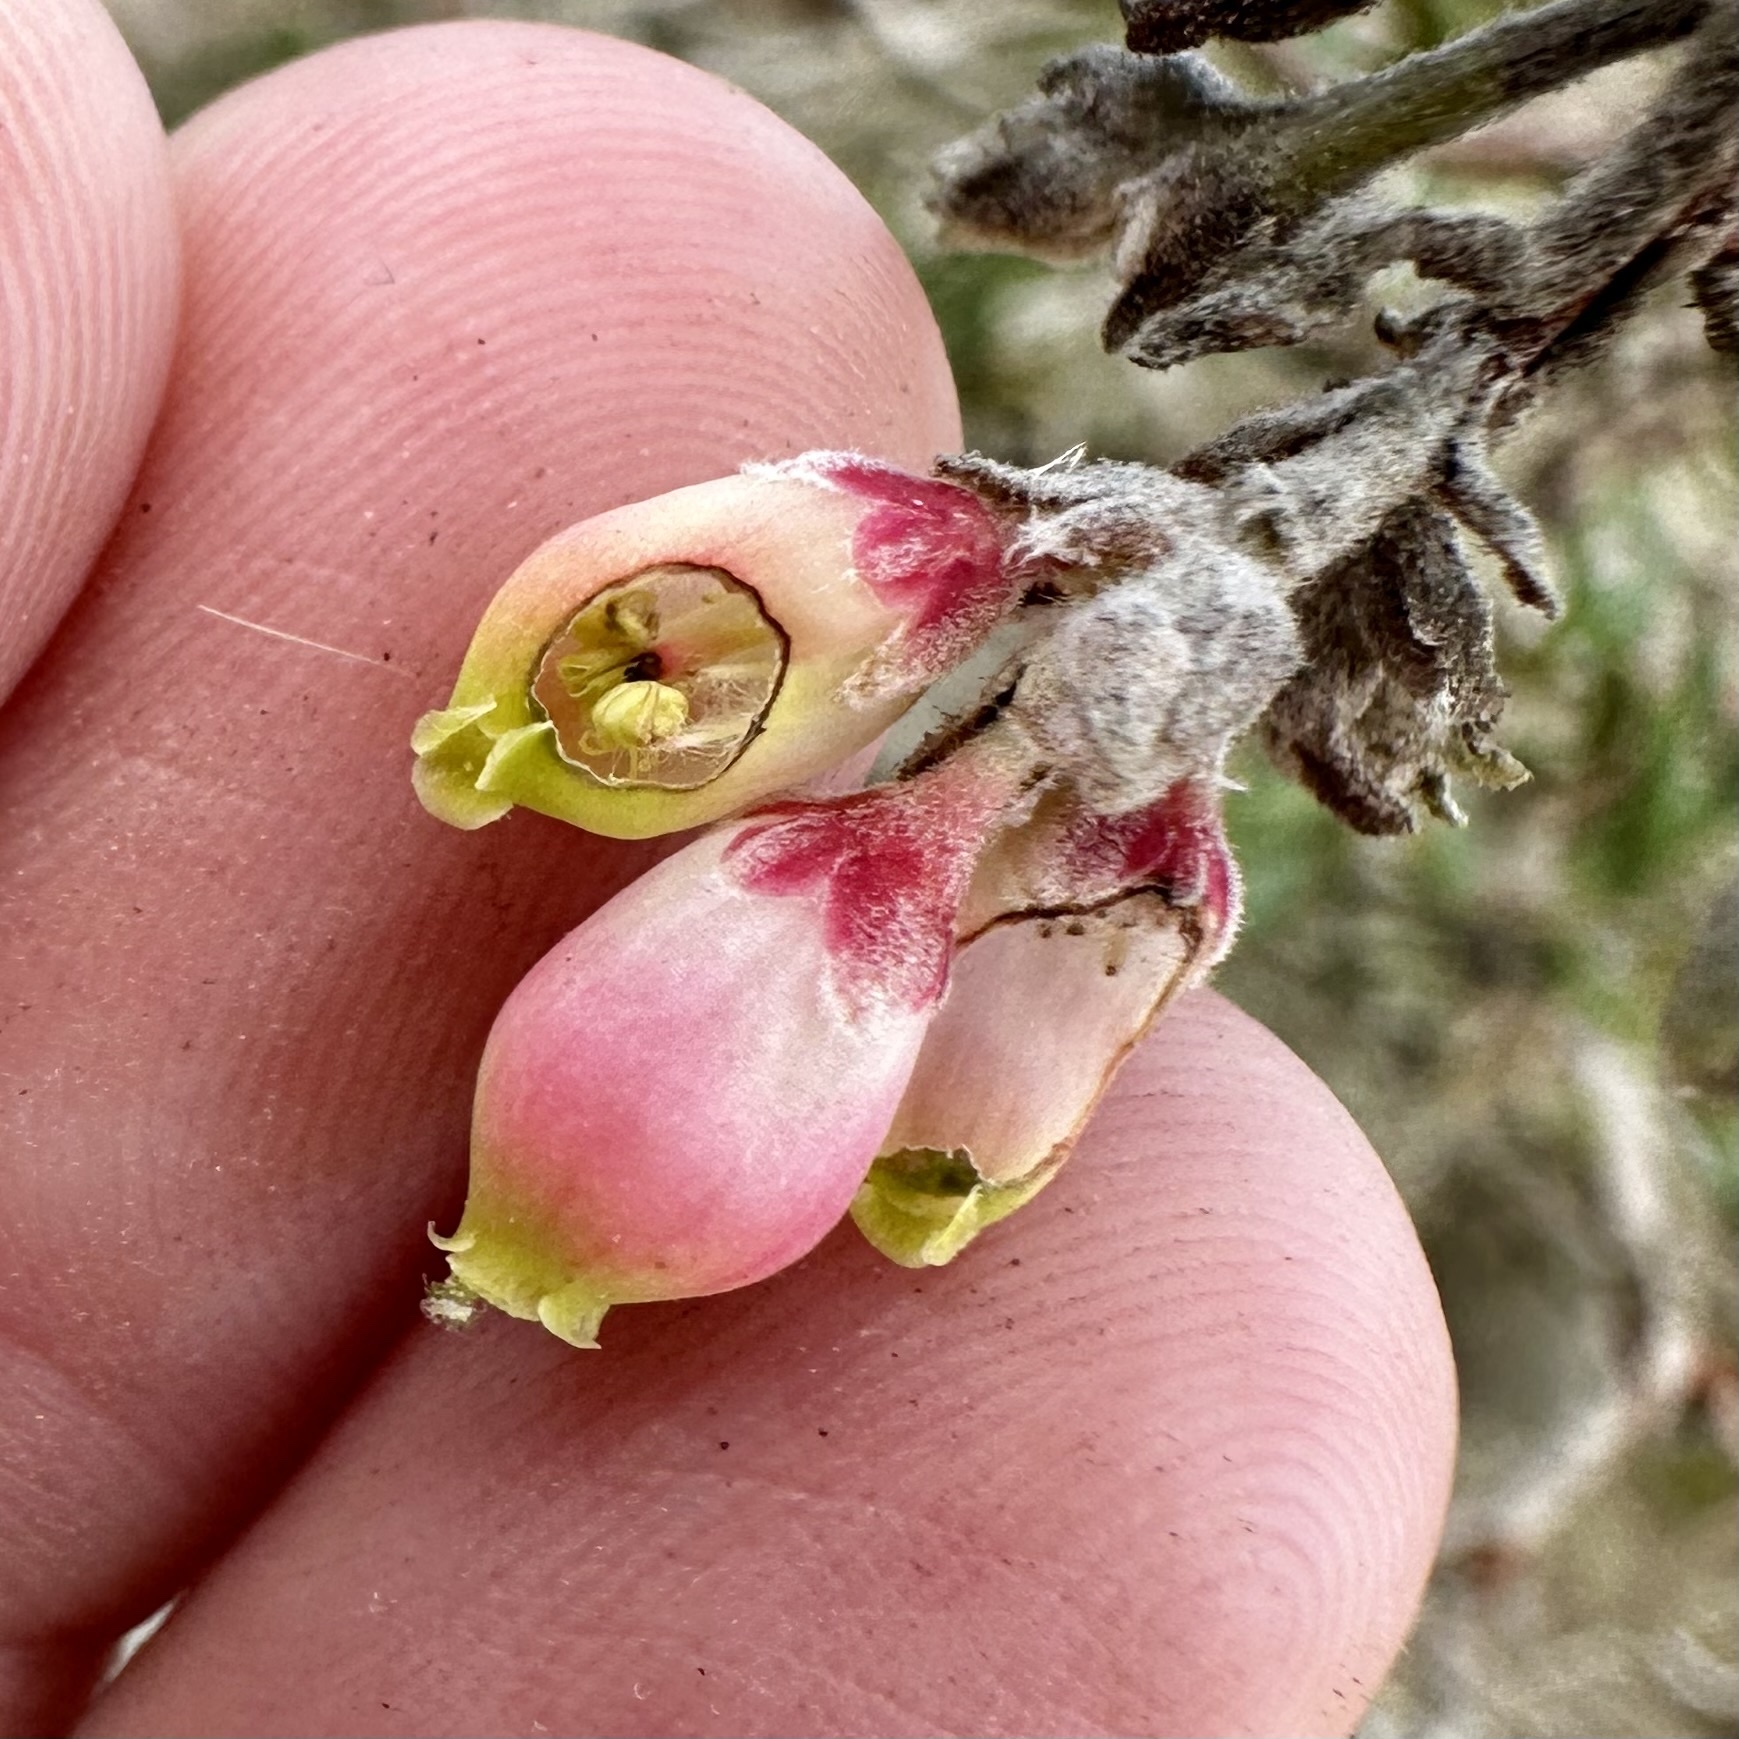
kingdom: Plantae
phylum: Tracheophyta
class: Magnoliopsida
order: Ericales
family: Ericaceae
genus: Arctostaphylos
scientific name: Arctostaphylos bicolor
